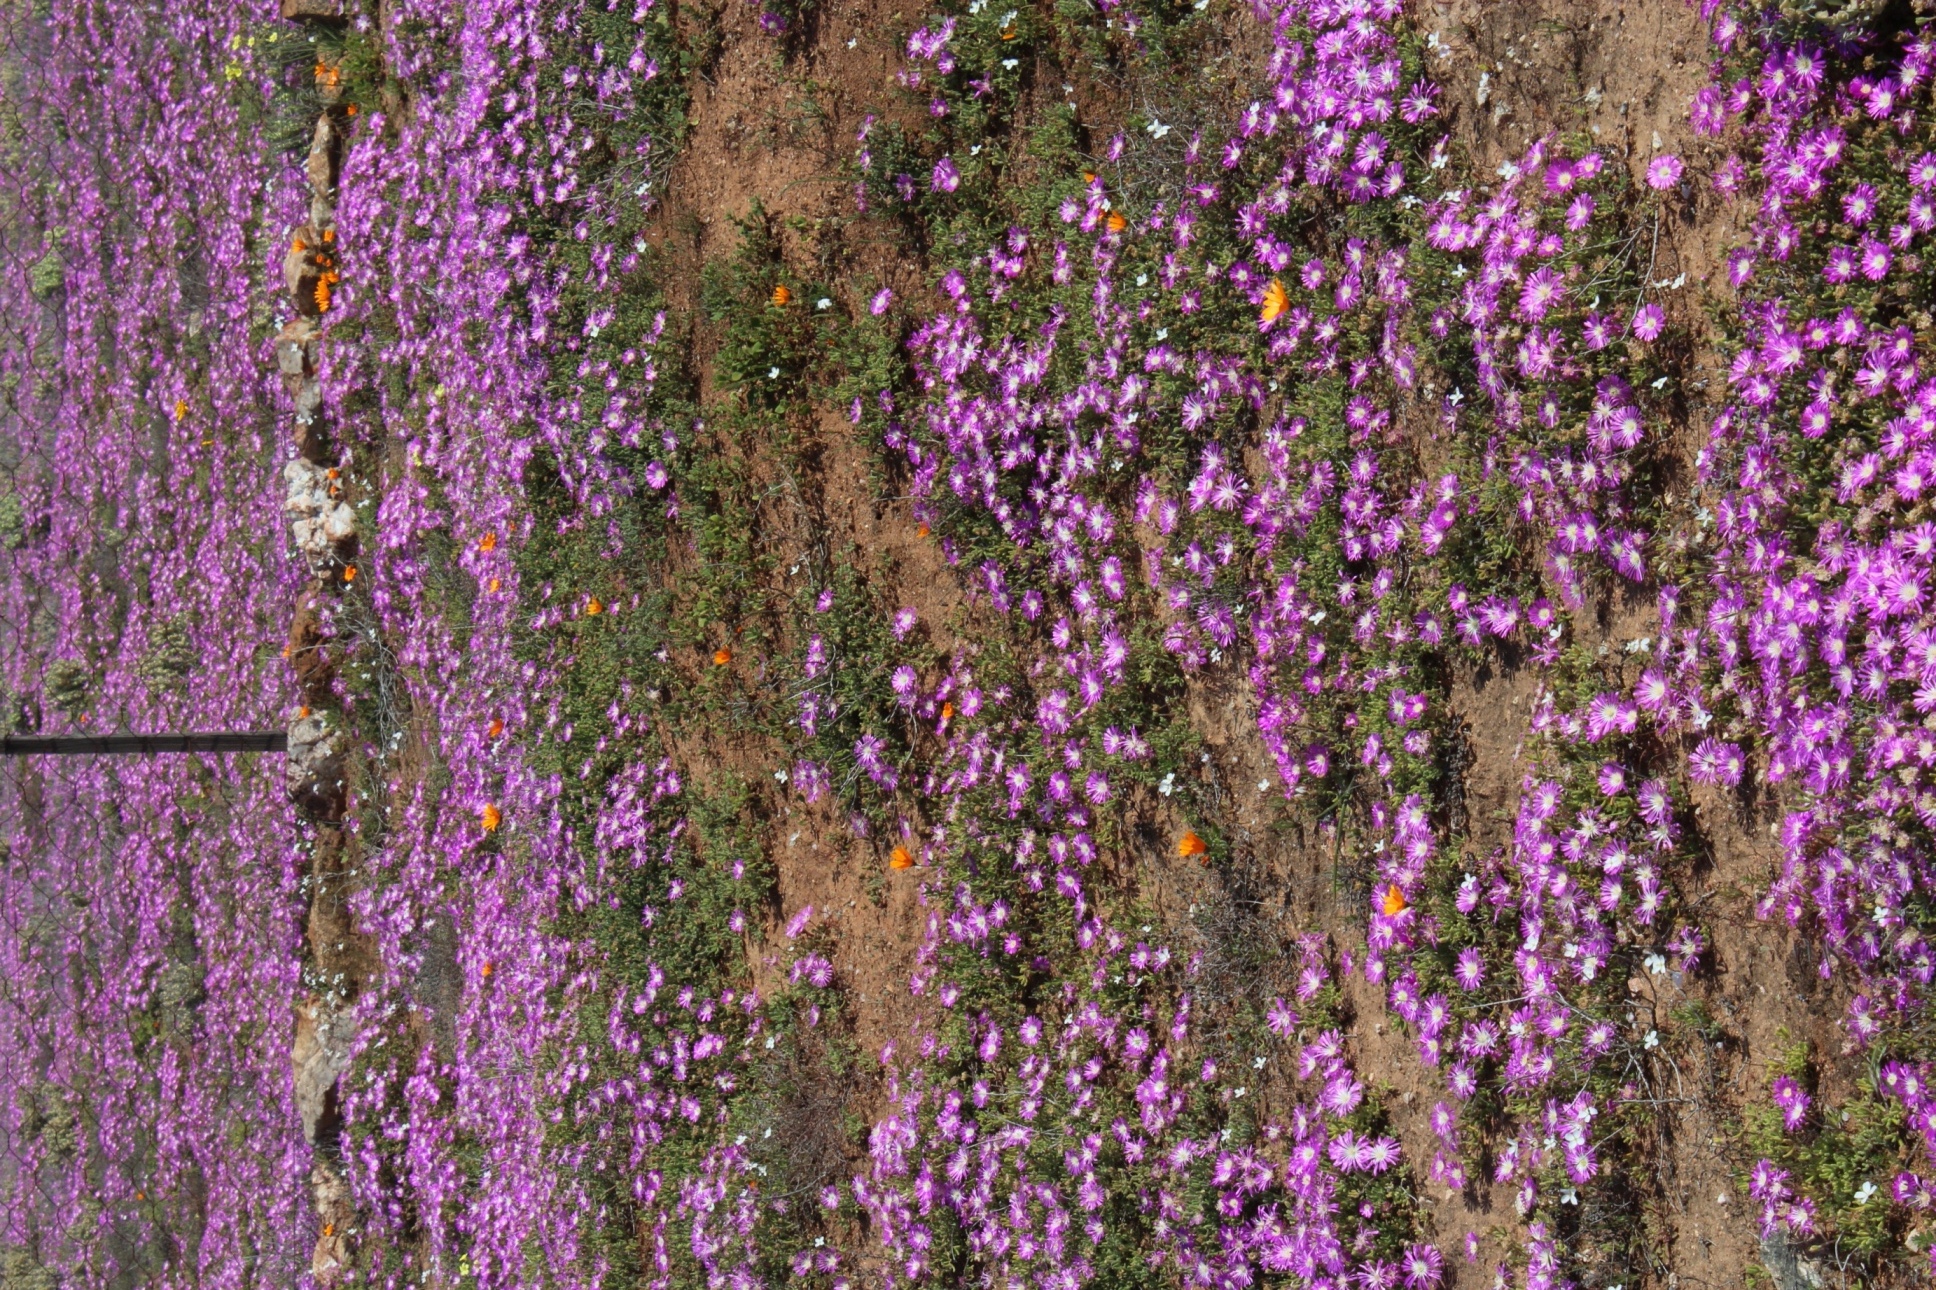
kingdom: Plantae
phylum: Tracheophyta
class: Magnoliopsida
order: Caryophyllales
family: Aizoaceae
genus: Drosanthemum
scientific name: Drosanthemum oculatum
